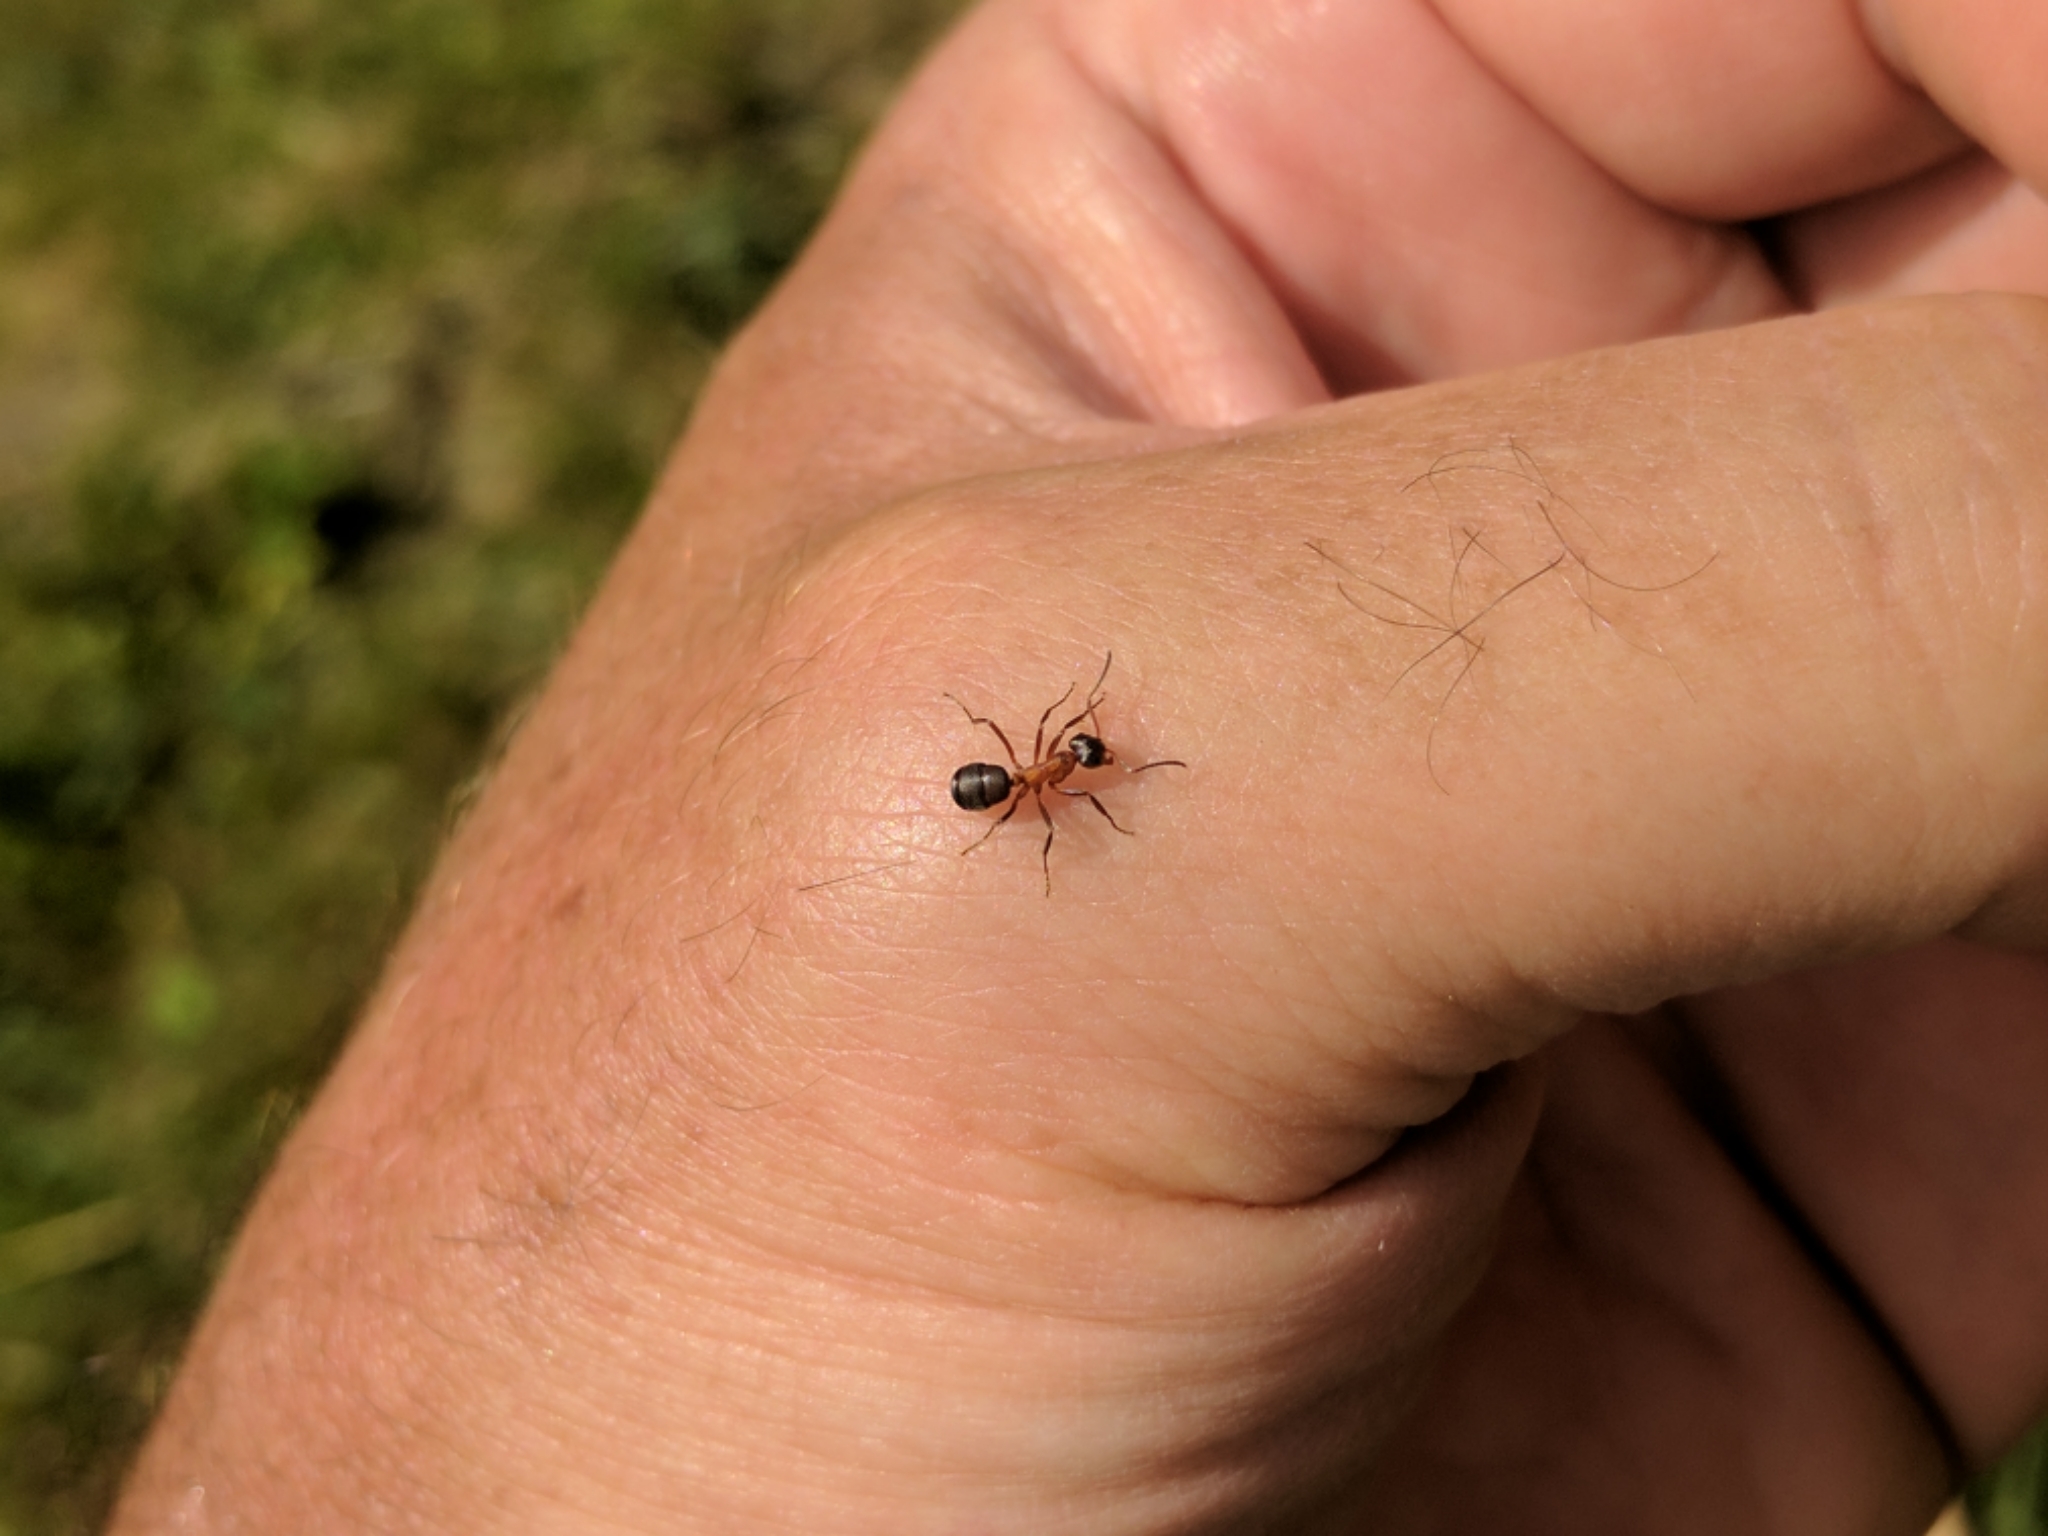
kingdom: Animalia
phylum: Arthropoda
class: Insecta
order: Hymenoptera
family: Formicidae
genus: Formica
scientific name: Formica exsecta
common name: Narrow headed ant
